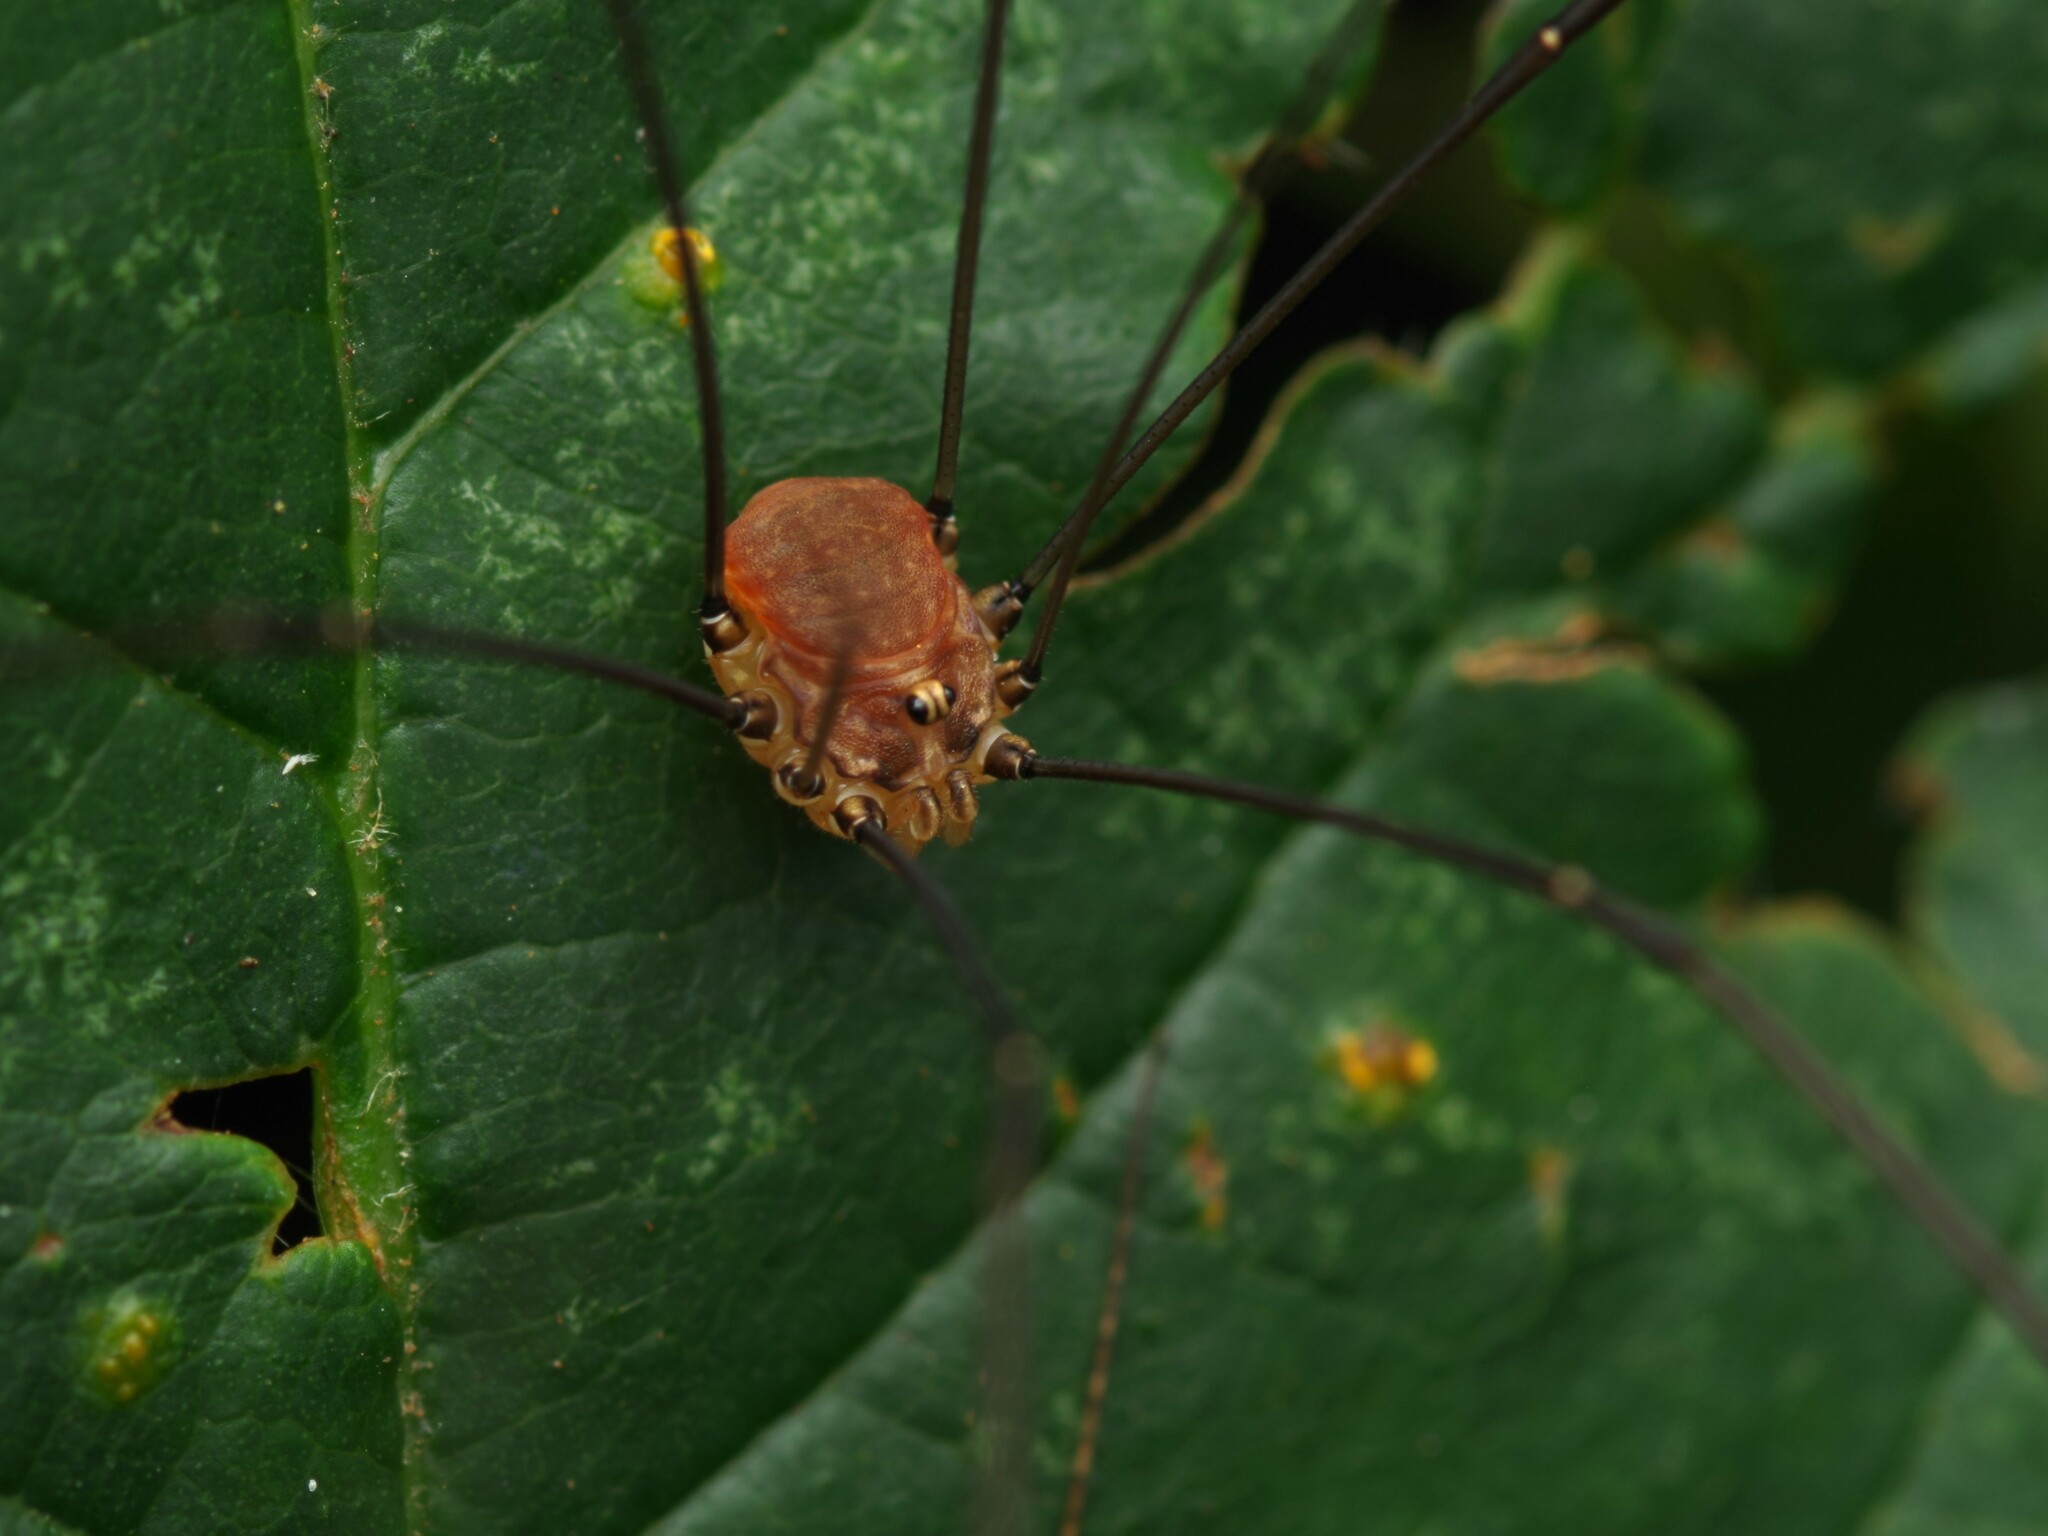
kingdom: Animalia
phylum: Arthropoda
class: Arachnida
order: Opiliones
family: Sclerosomatidae
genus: Leiobunum
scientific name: Leiobunum blackwalli
